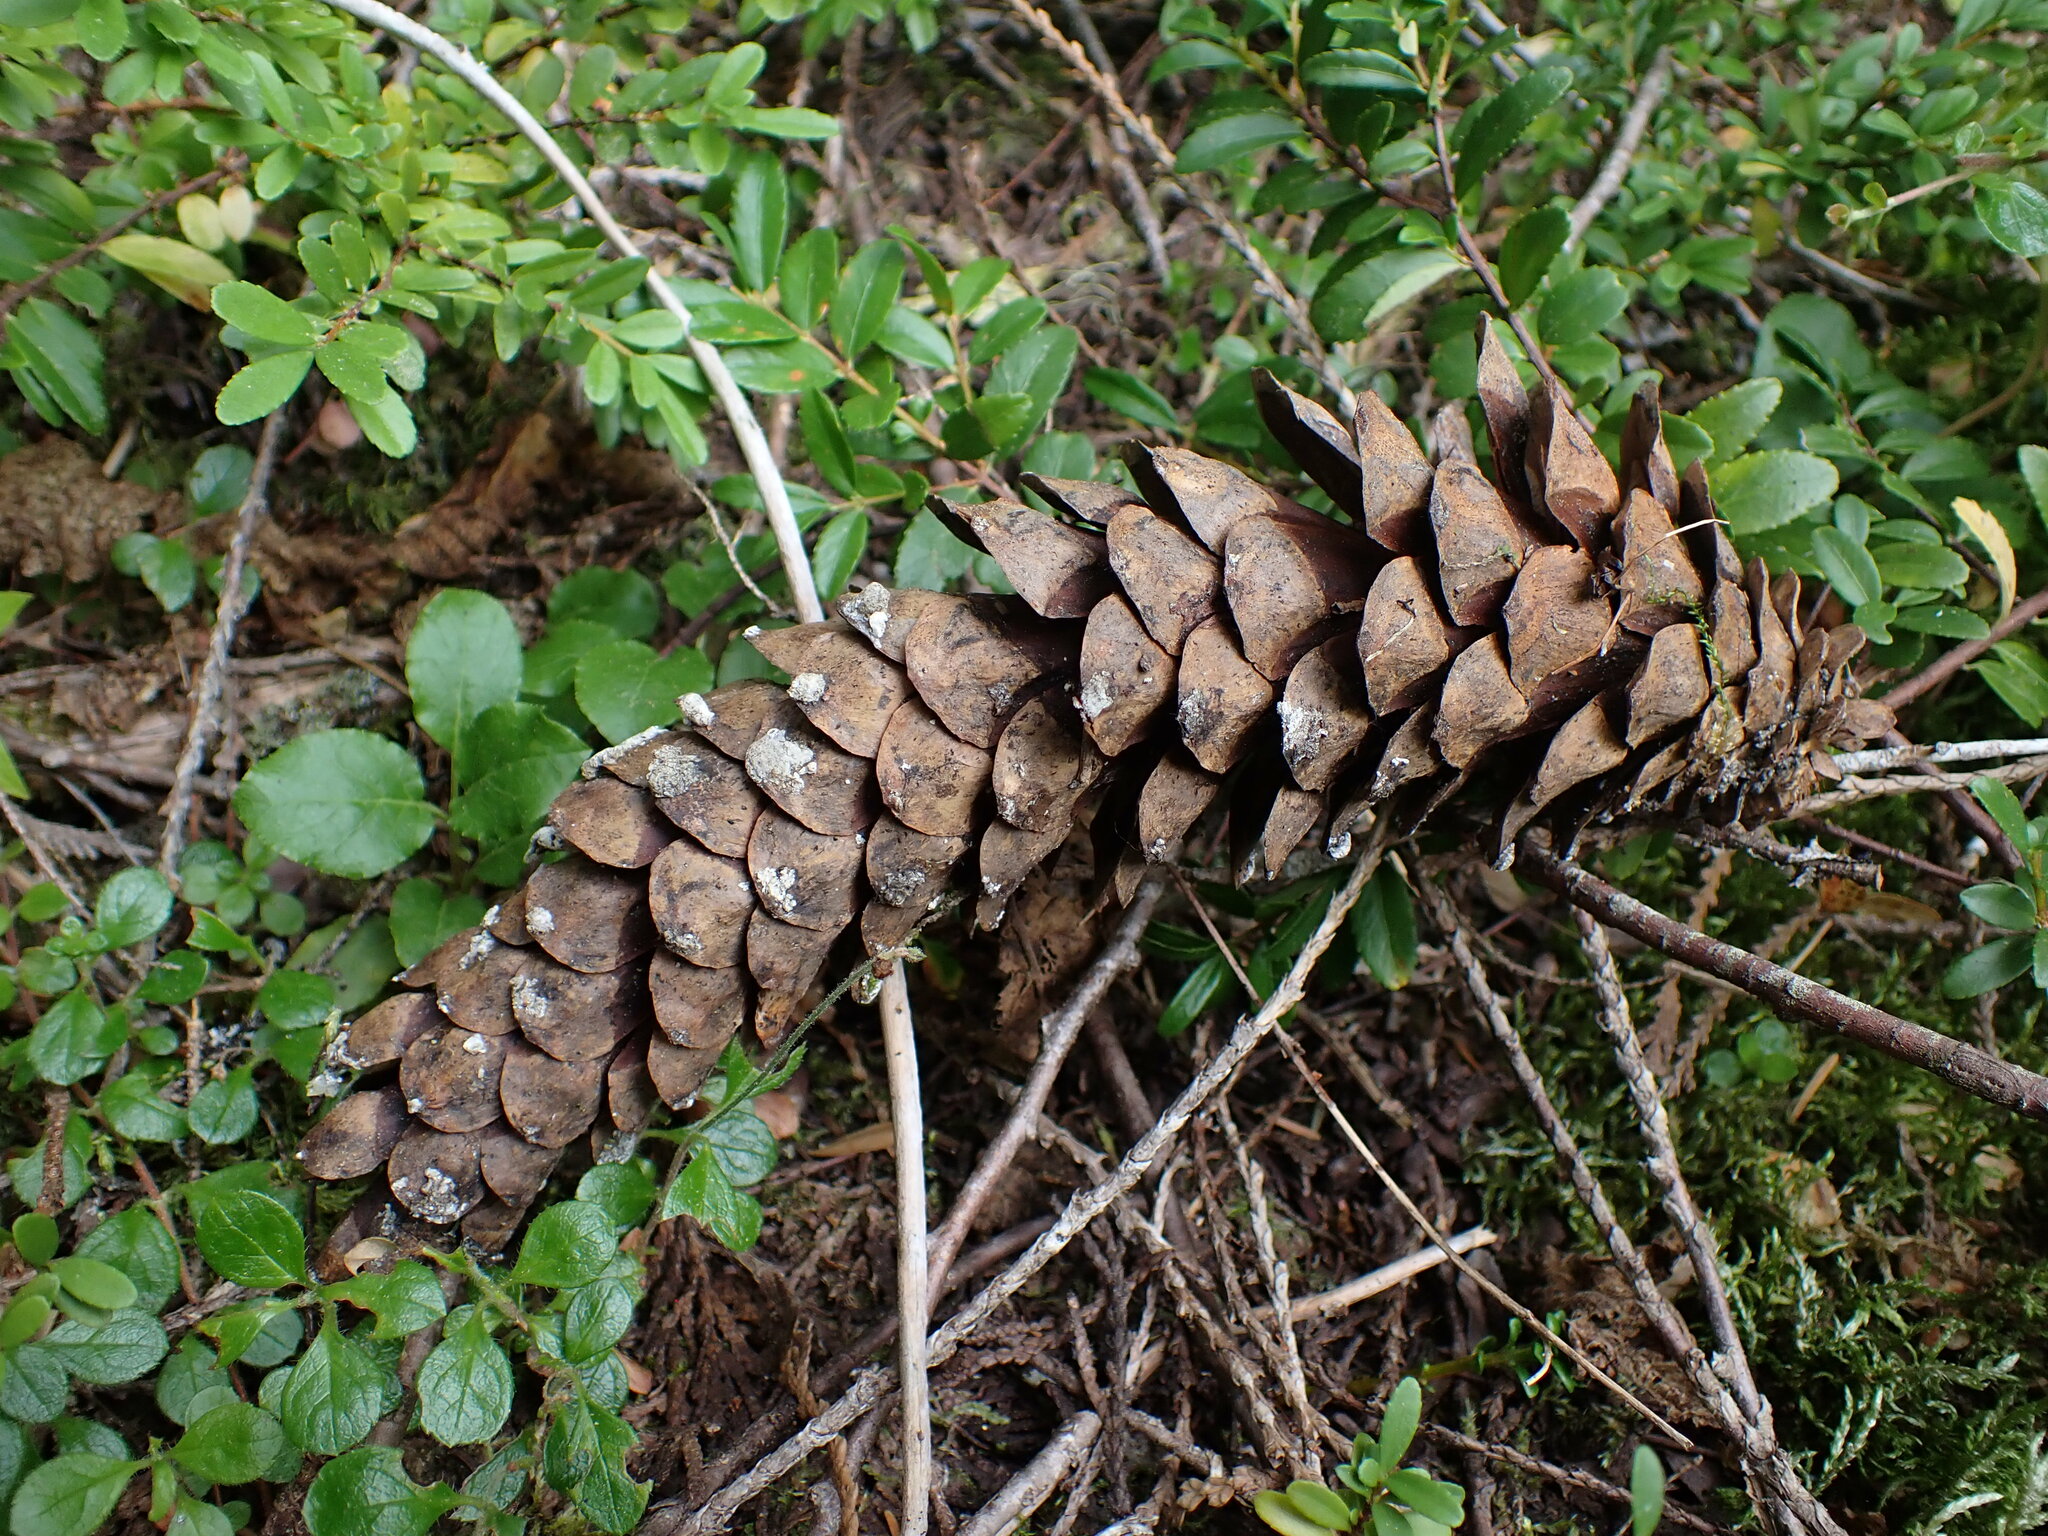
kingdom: Plantae
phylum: Tracheophyta
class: Pinopsida
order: Pinales
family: Pinaceae
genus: Pinus
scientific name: Pinus monticola
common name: Western white pine
